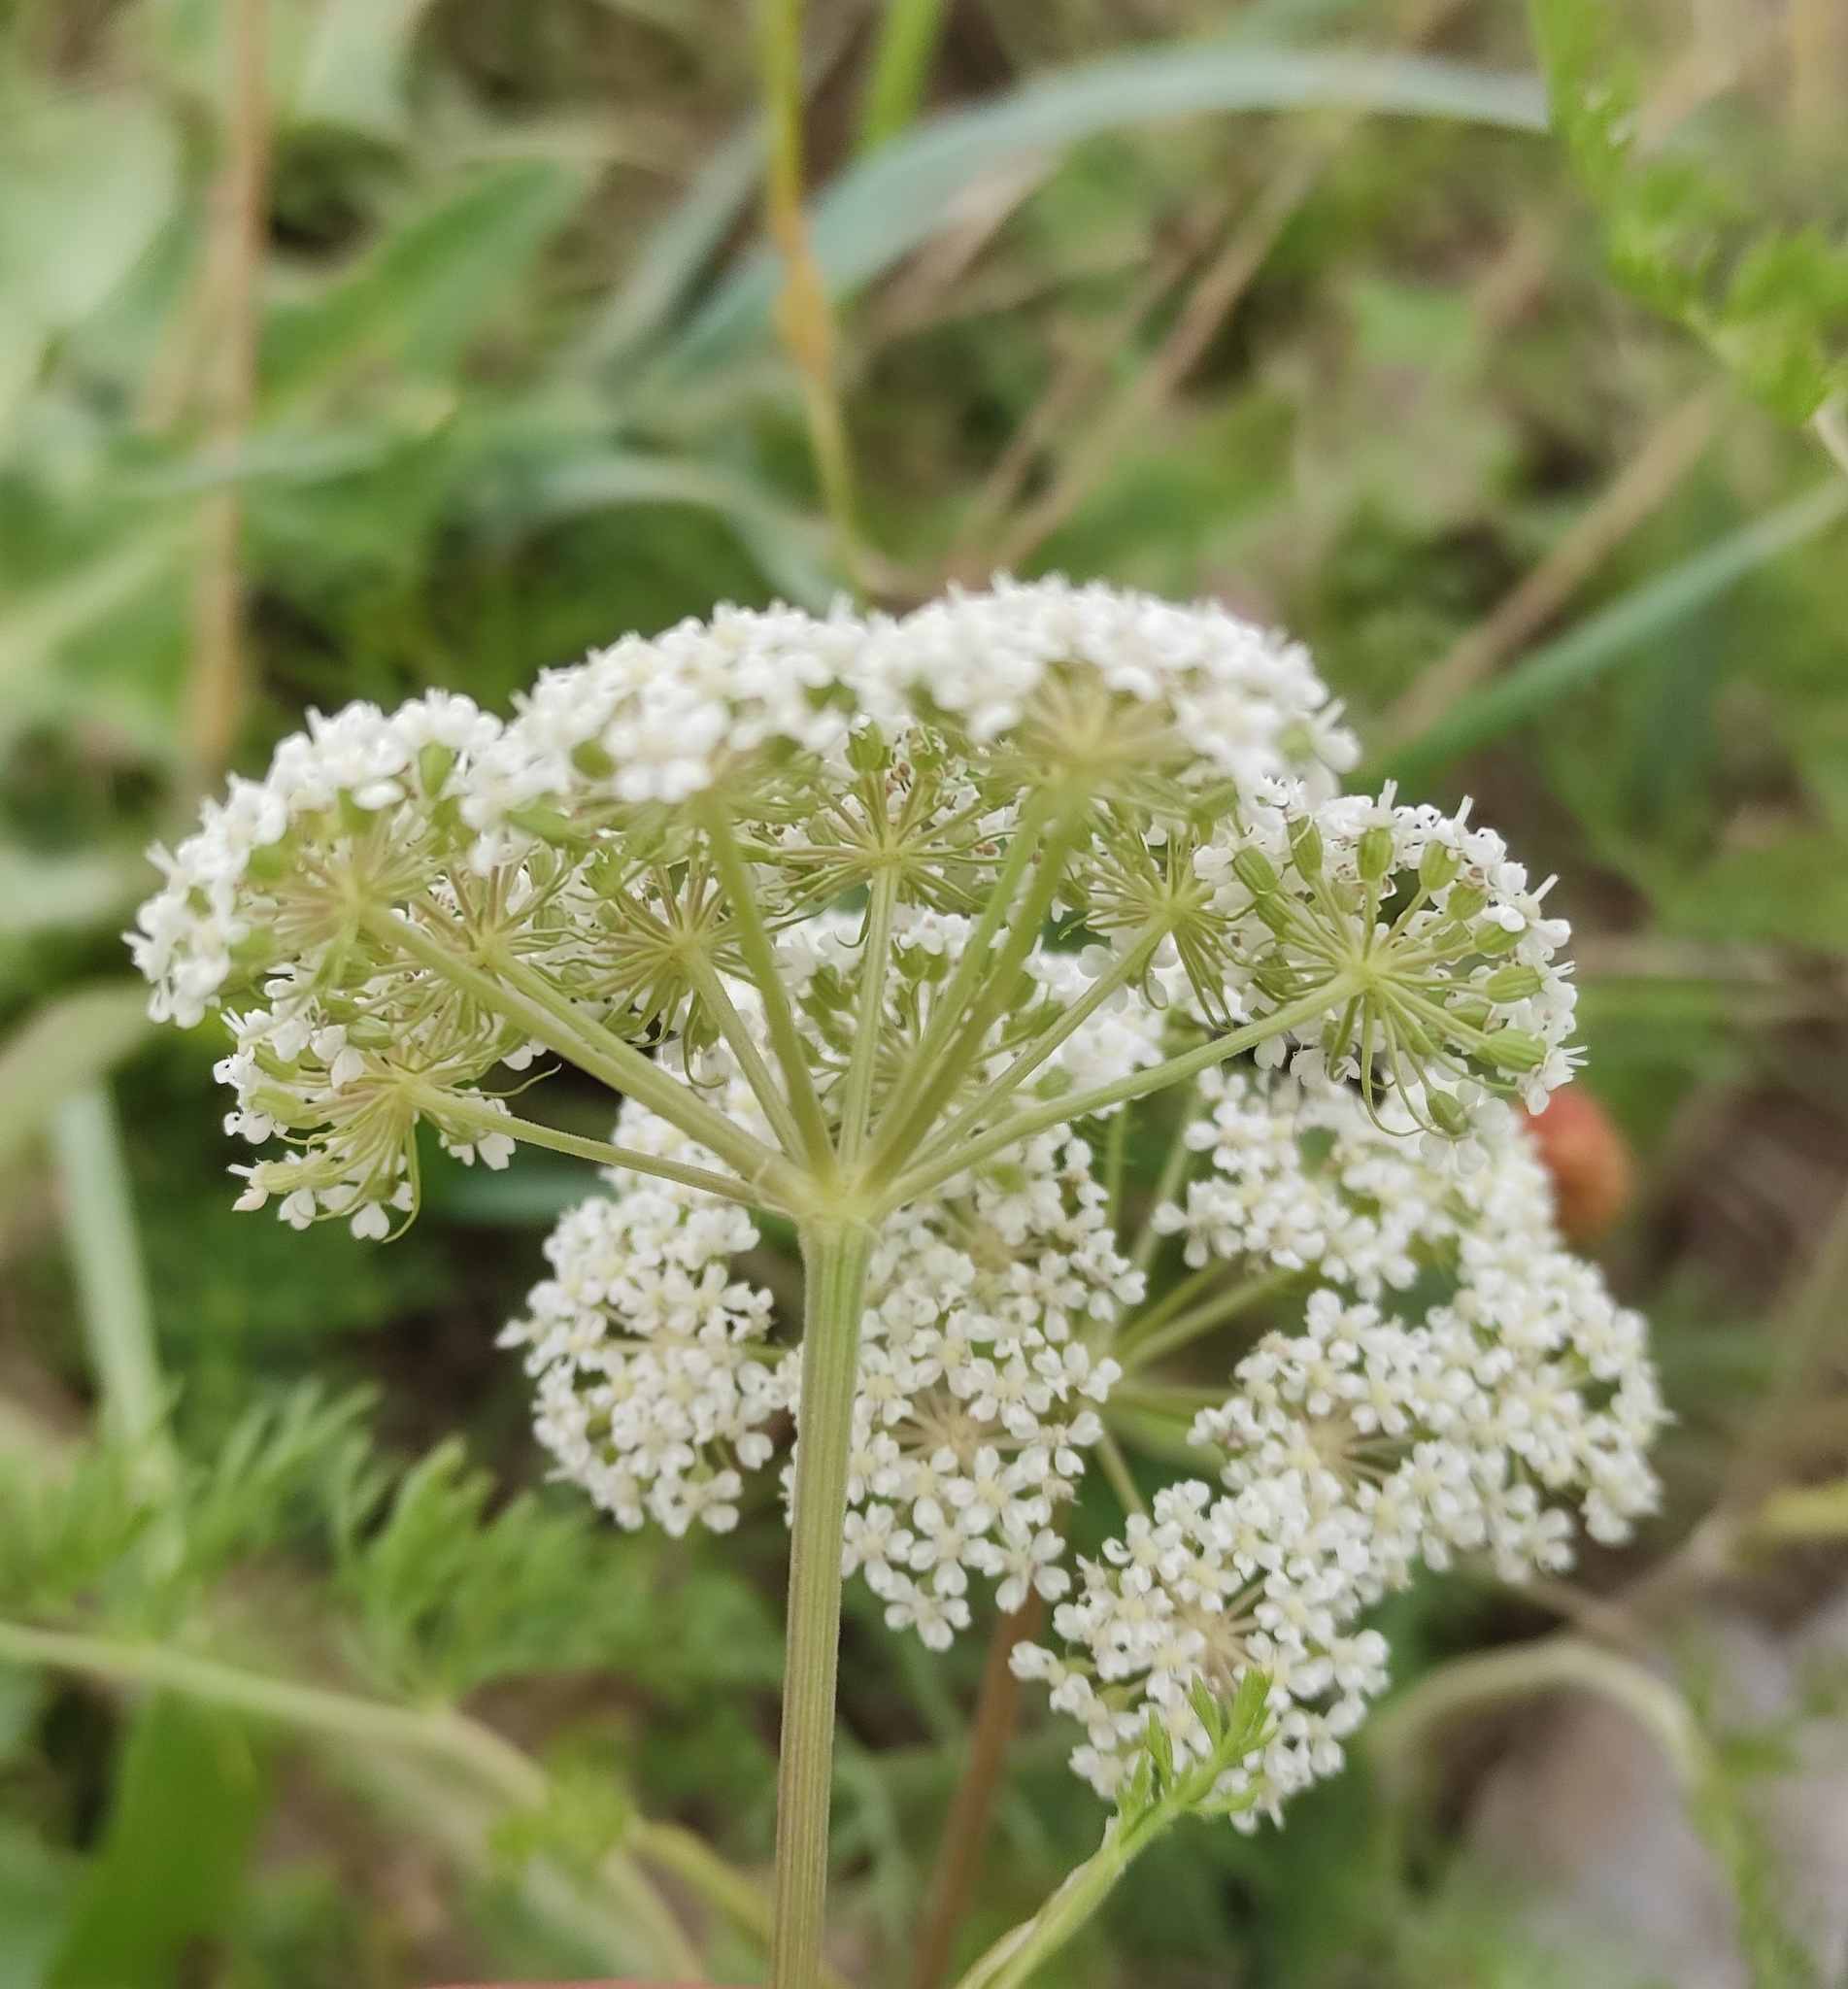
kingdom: Plantae
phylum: Tracheophyta
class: Magnoliopsida
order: Apiales
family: Apiaceae
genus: Peucedanum
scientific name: Peucedanum puberulum
